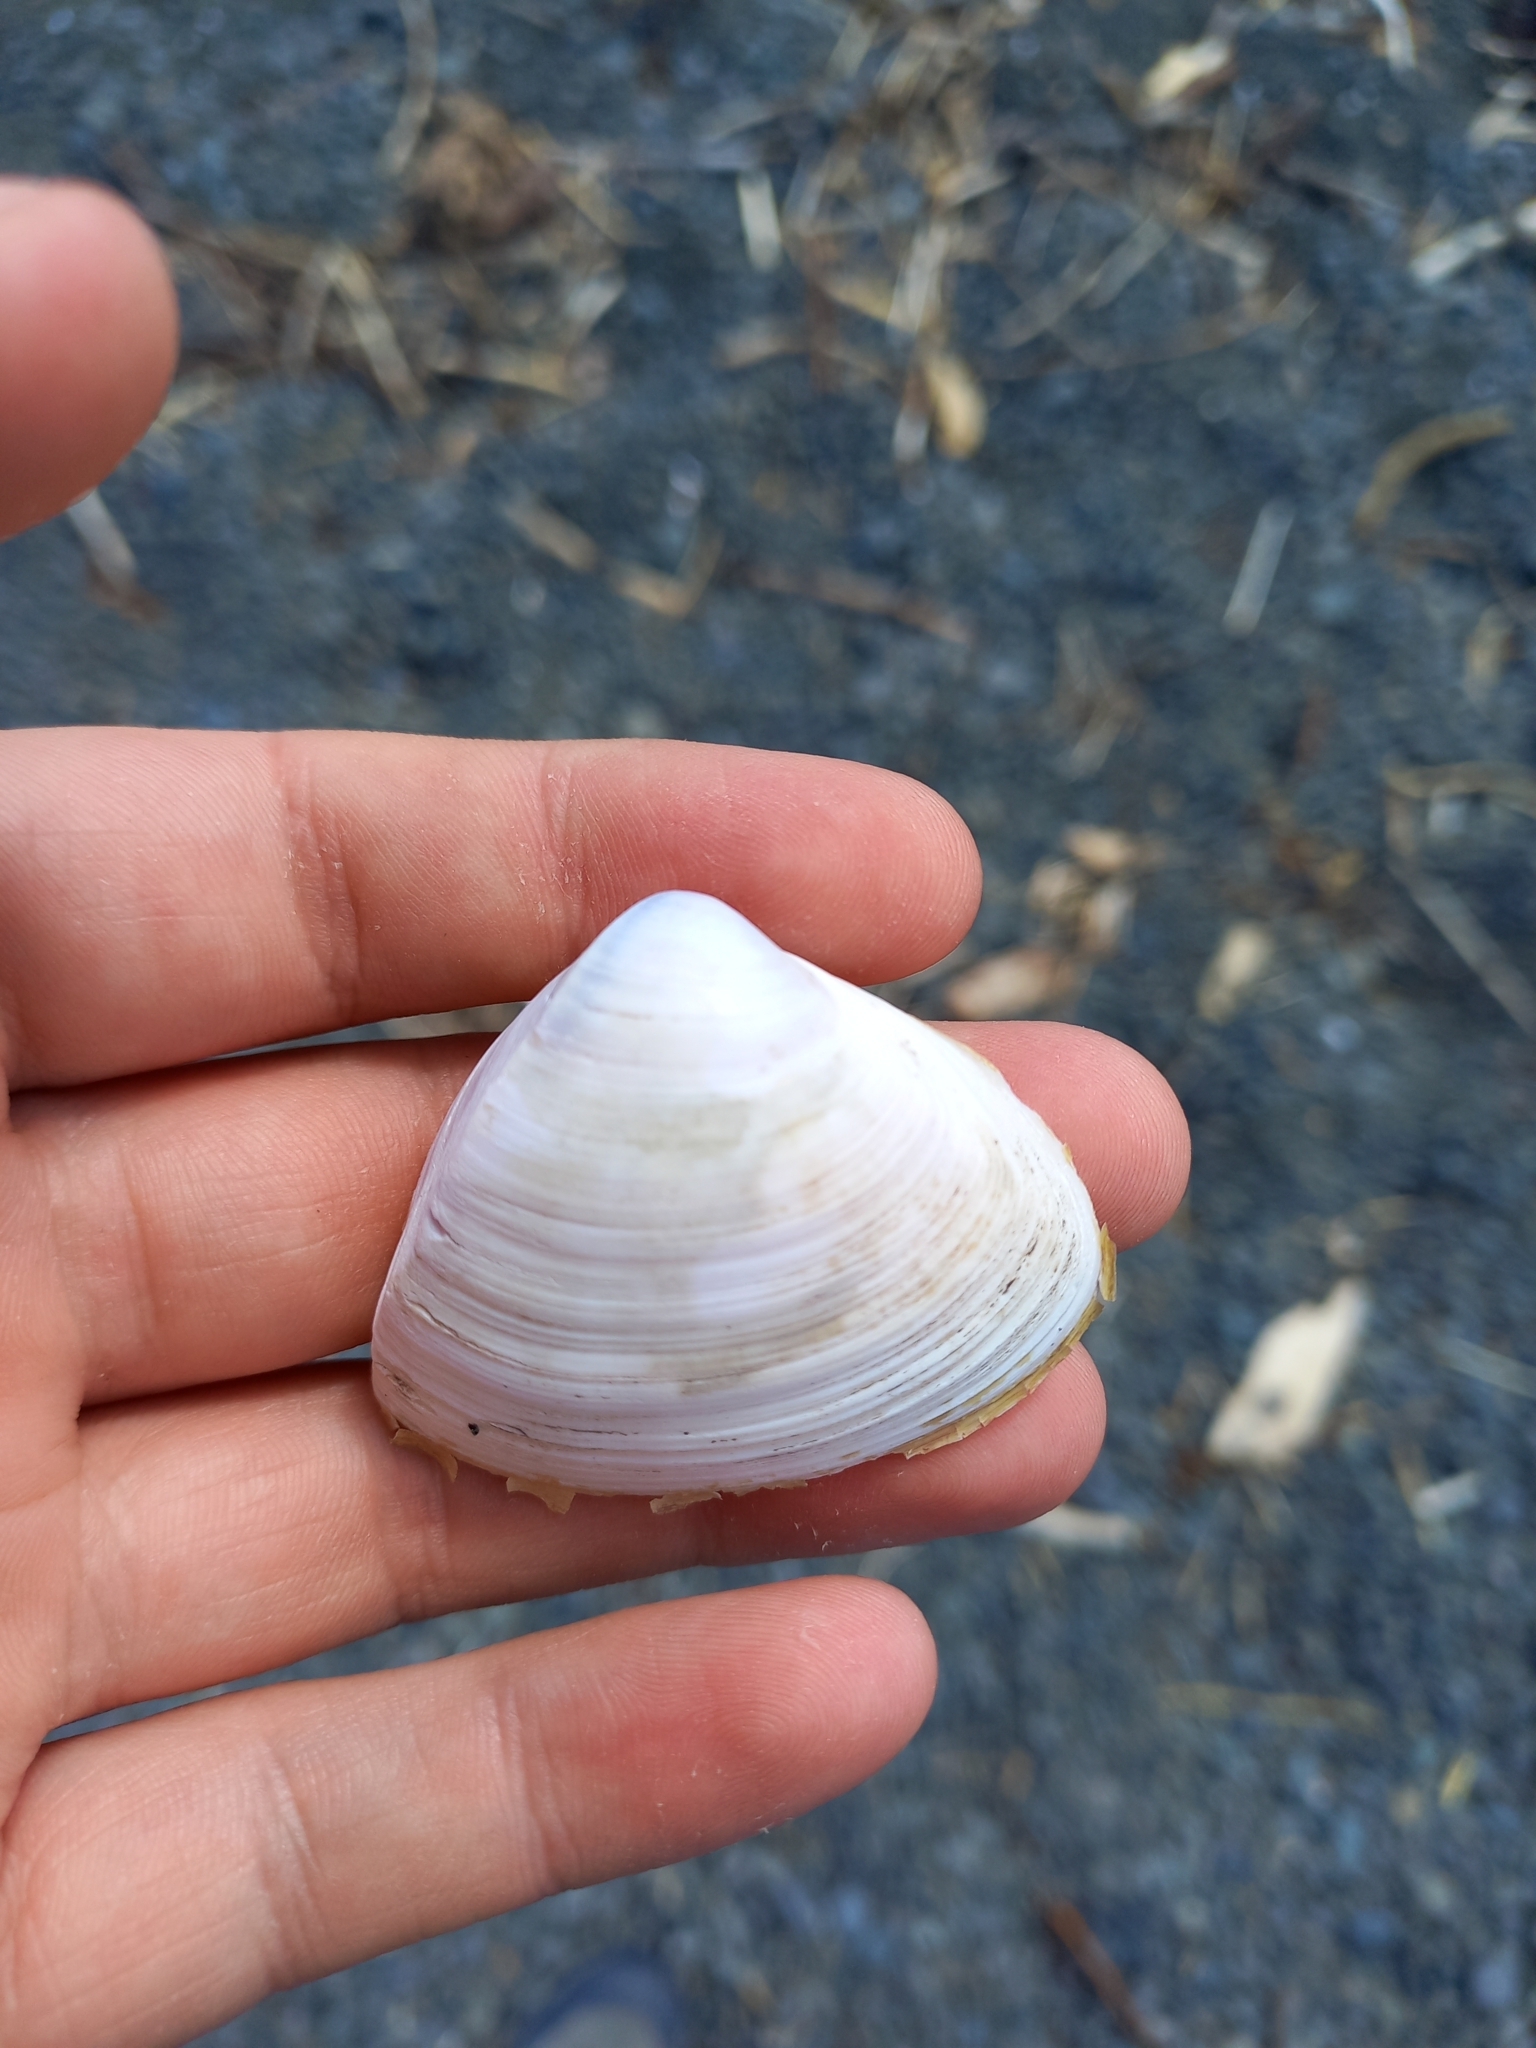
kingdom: Animalia
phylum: Mollusca
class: Bivalvia
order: Venerida
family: Mactridae
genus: Crassula
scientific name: Crassula aequilatera
